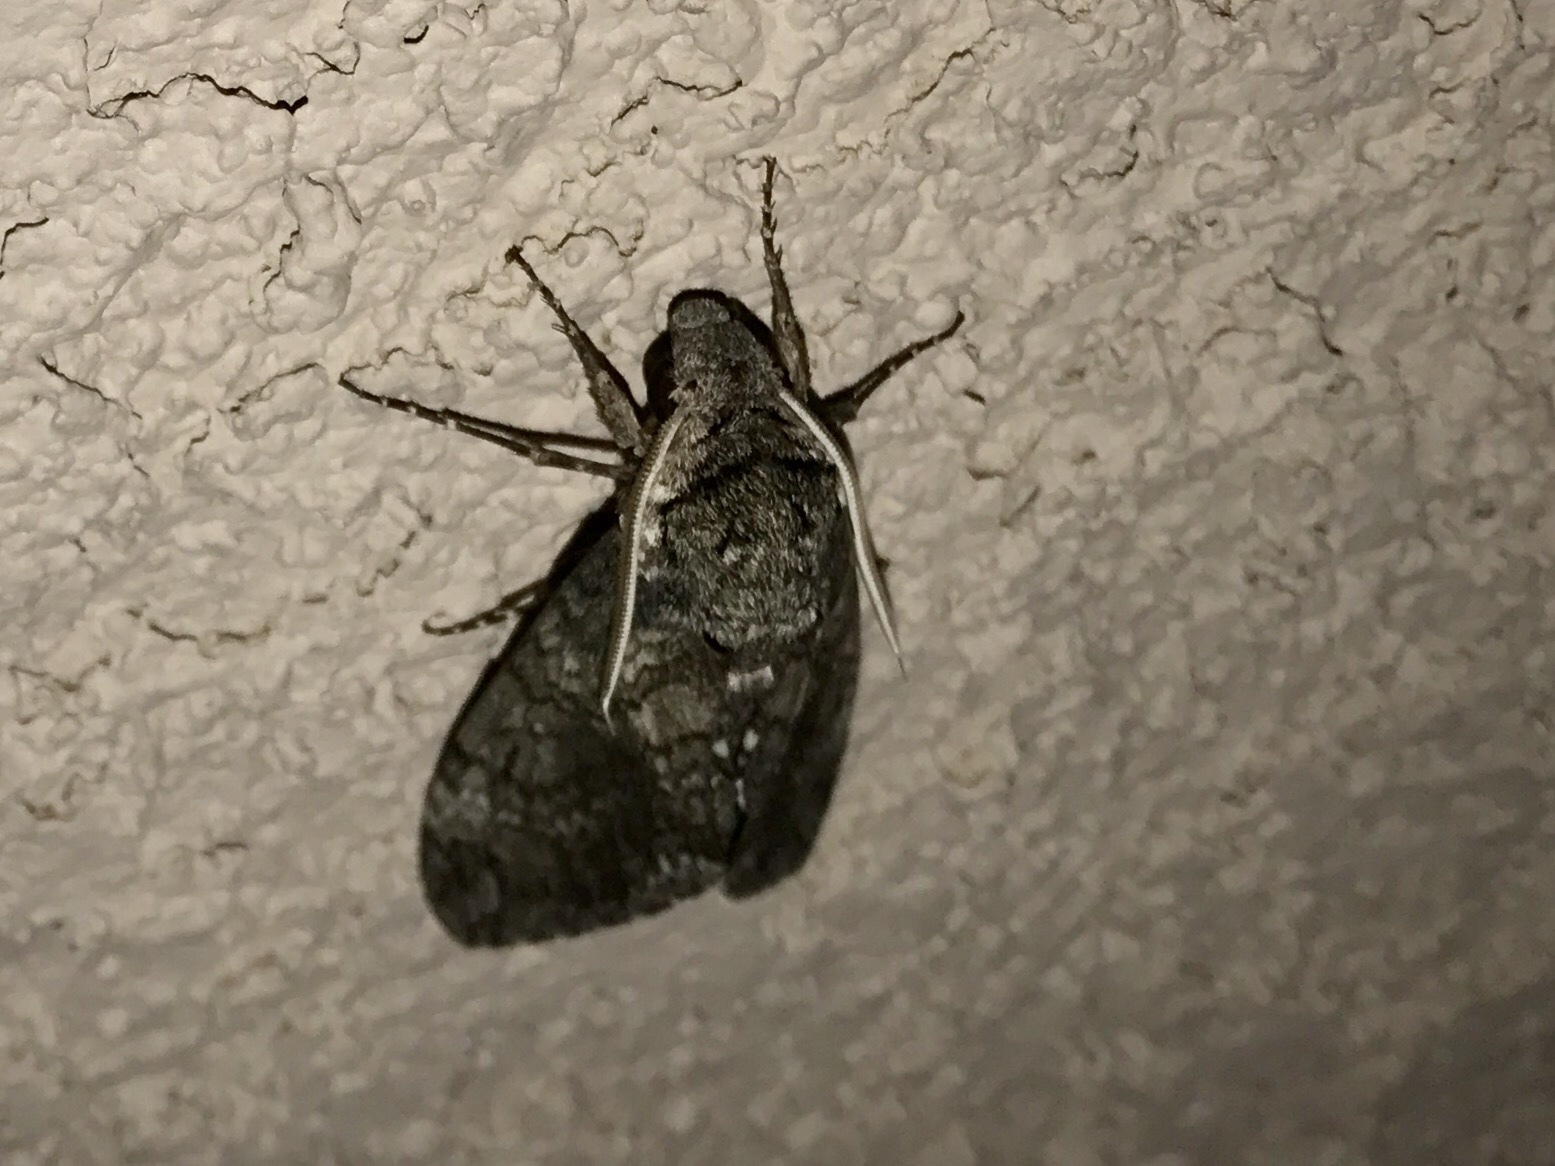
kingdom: Animalia
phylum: Arthropoda
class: Insecta
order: Lepidoptera
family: Sphingidae
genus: Manduca
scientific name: Manduca sexta
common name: Carolina sphinx
